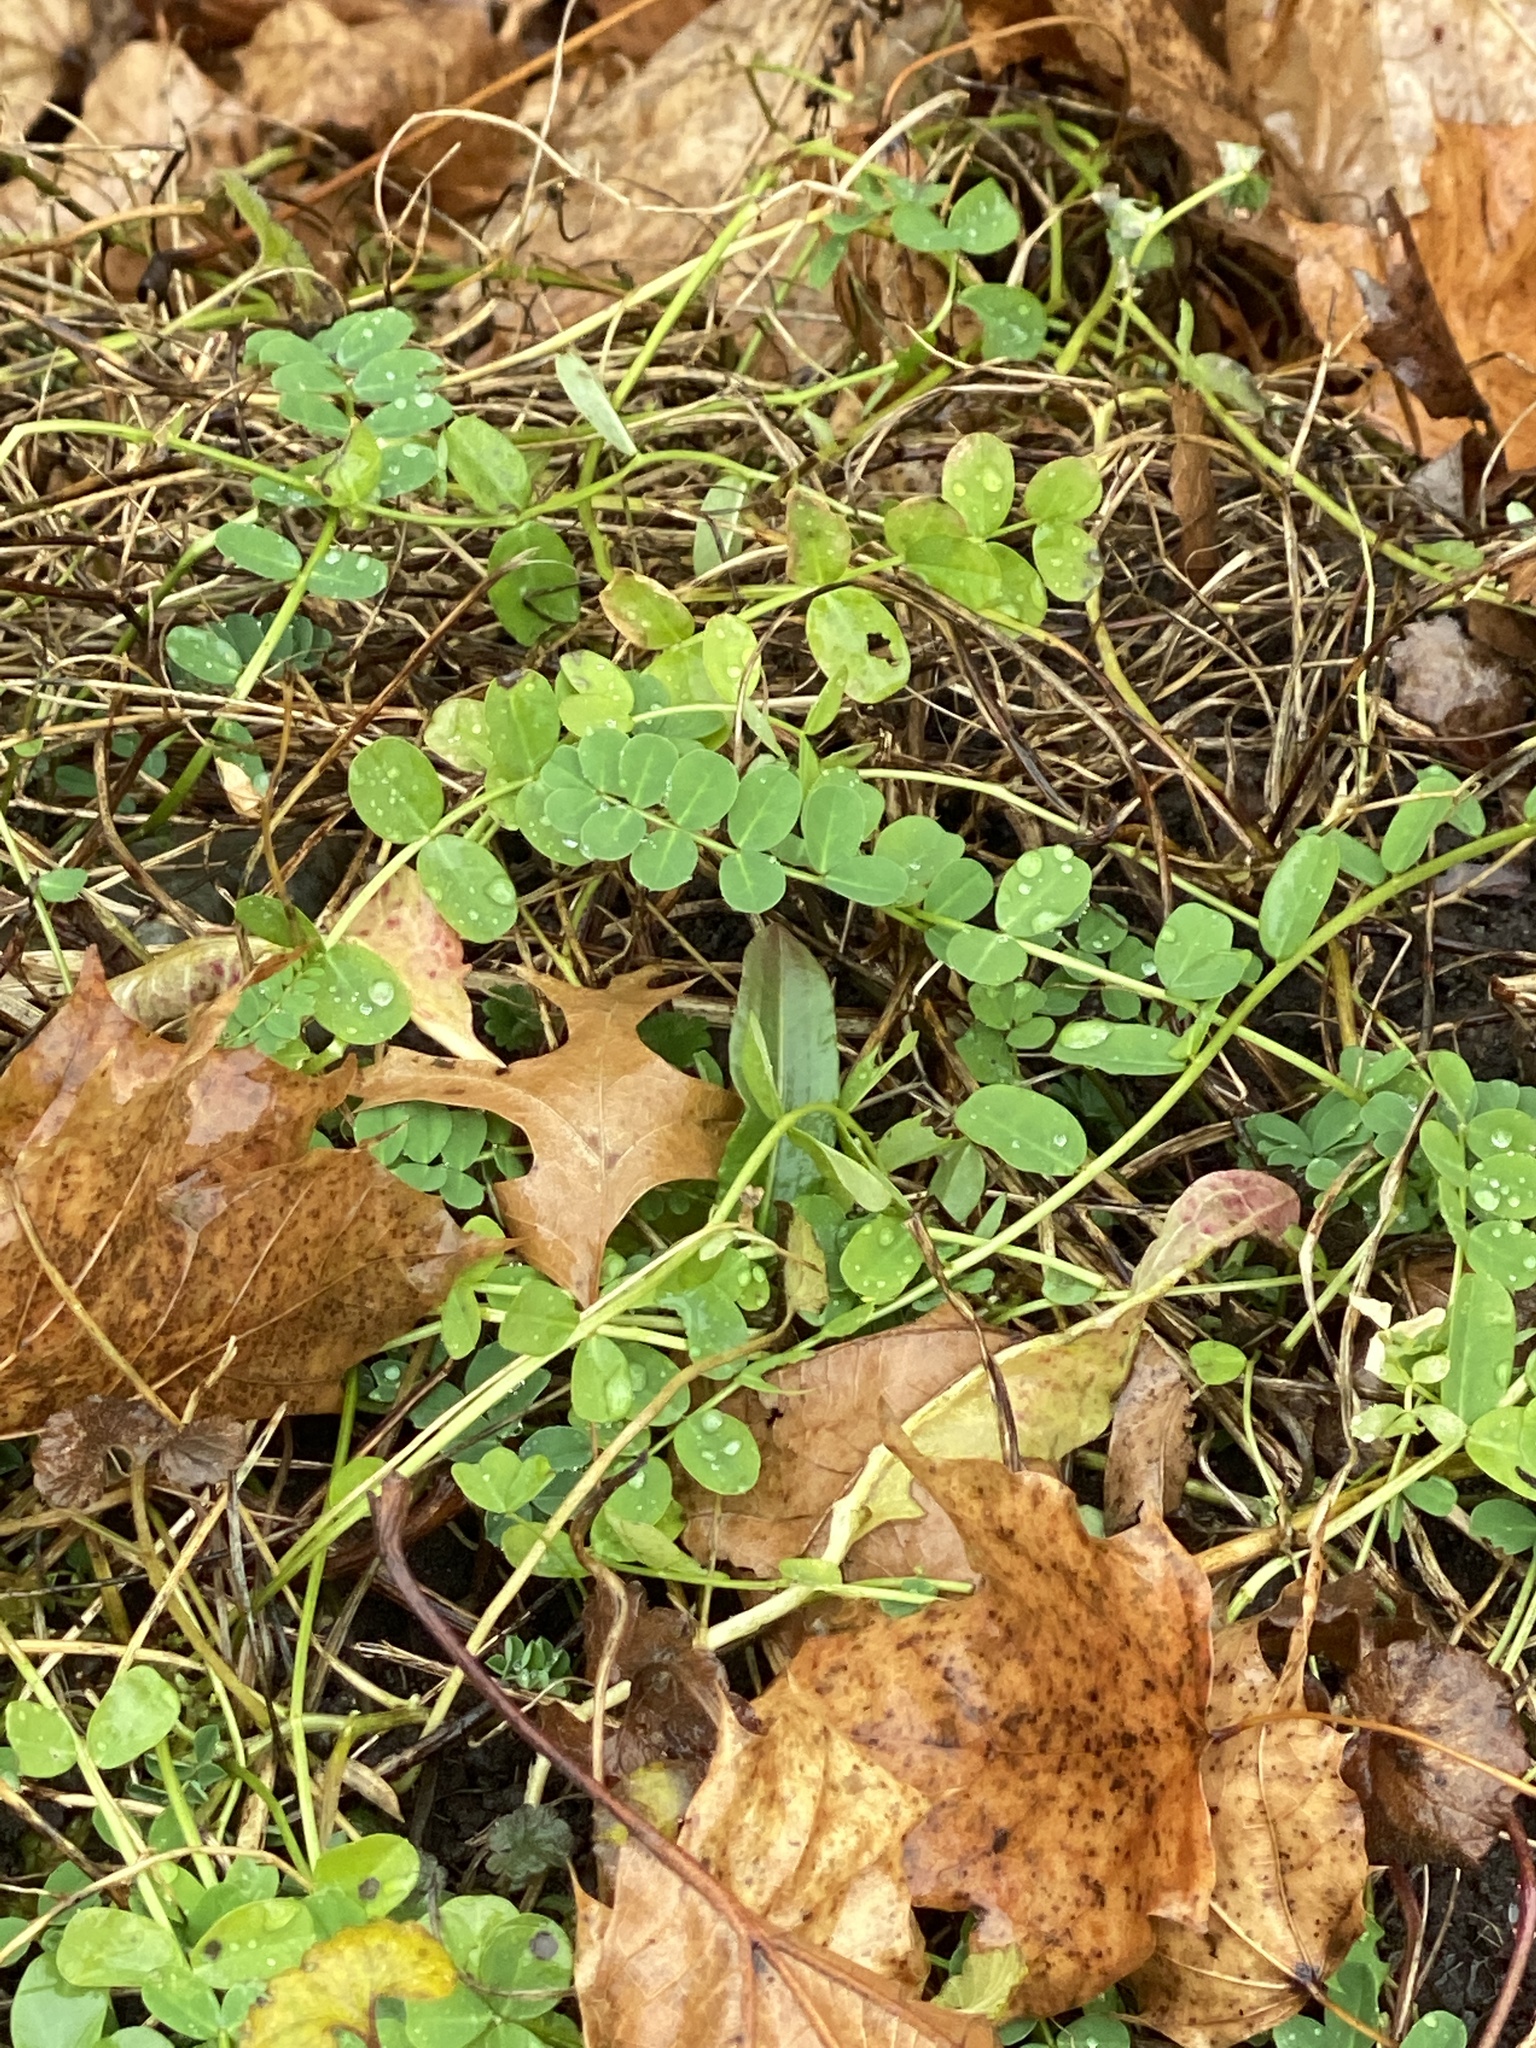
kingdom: Plantae
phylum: Tracheophyta
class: Magnoliopsida
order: Fabales
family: Fabaceae
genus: Coronilla
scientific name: Coronilla varia
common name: Crownvetch
